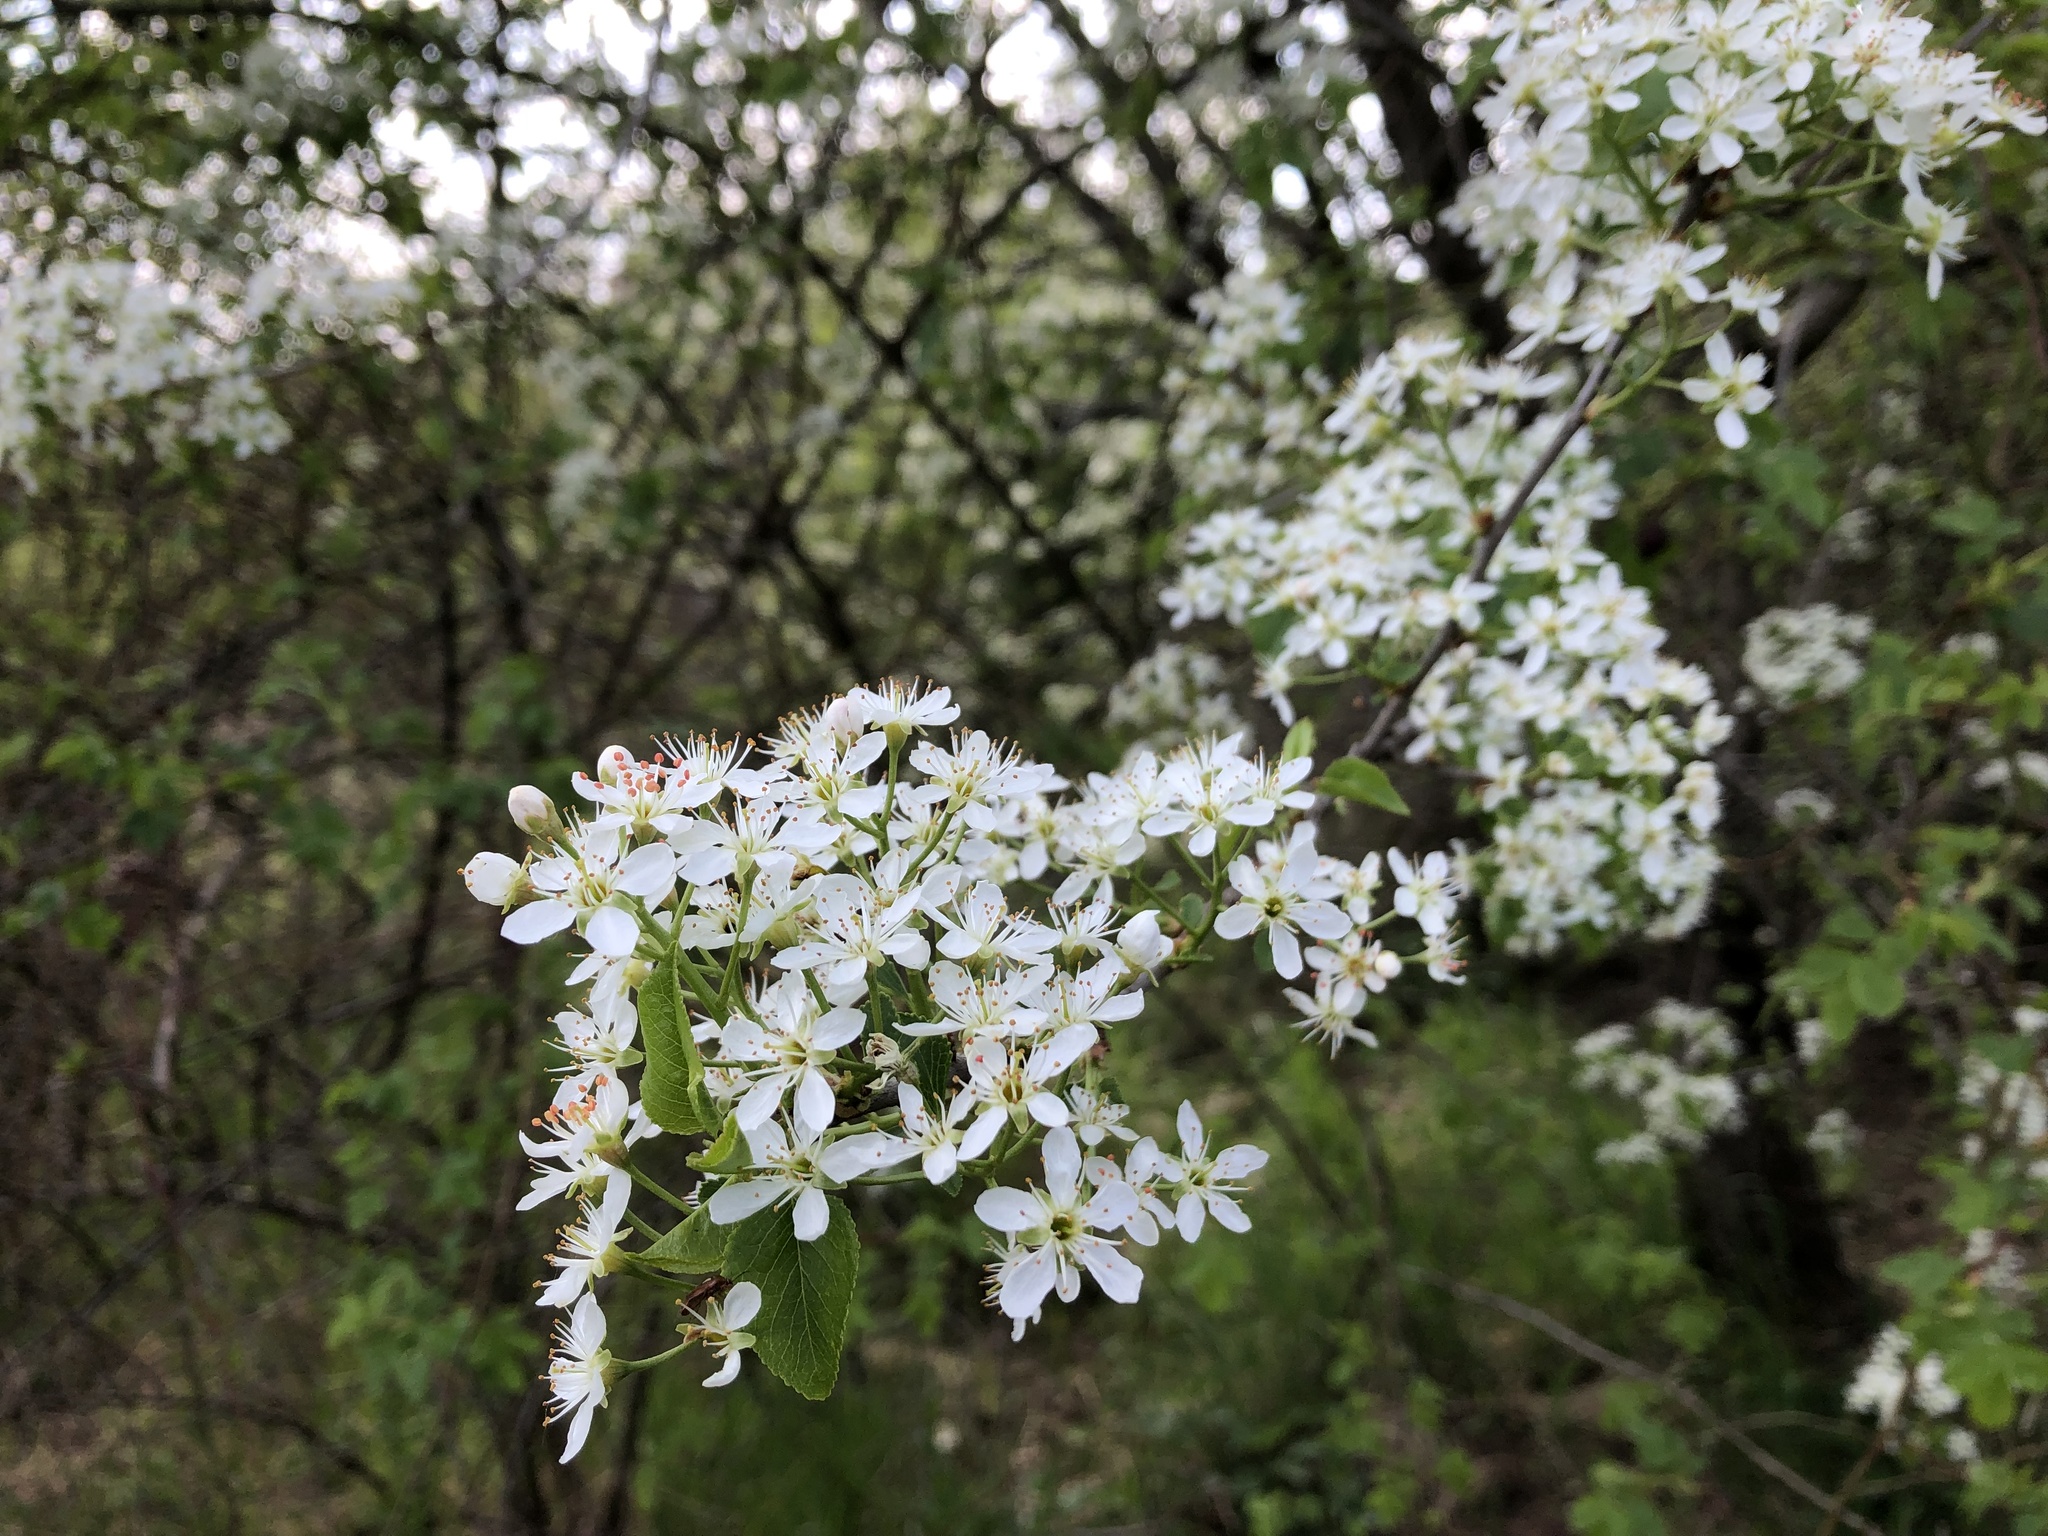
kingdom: Plantae
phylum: Tracheophyta
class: Magnoliopsida
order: Rosales
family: Rosaceae
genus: Prunus
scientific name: Prunus mahaleb
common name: Mahaleb cherry
